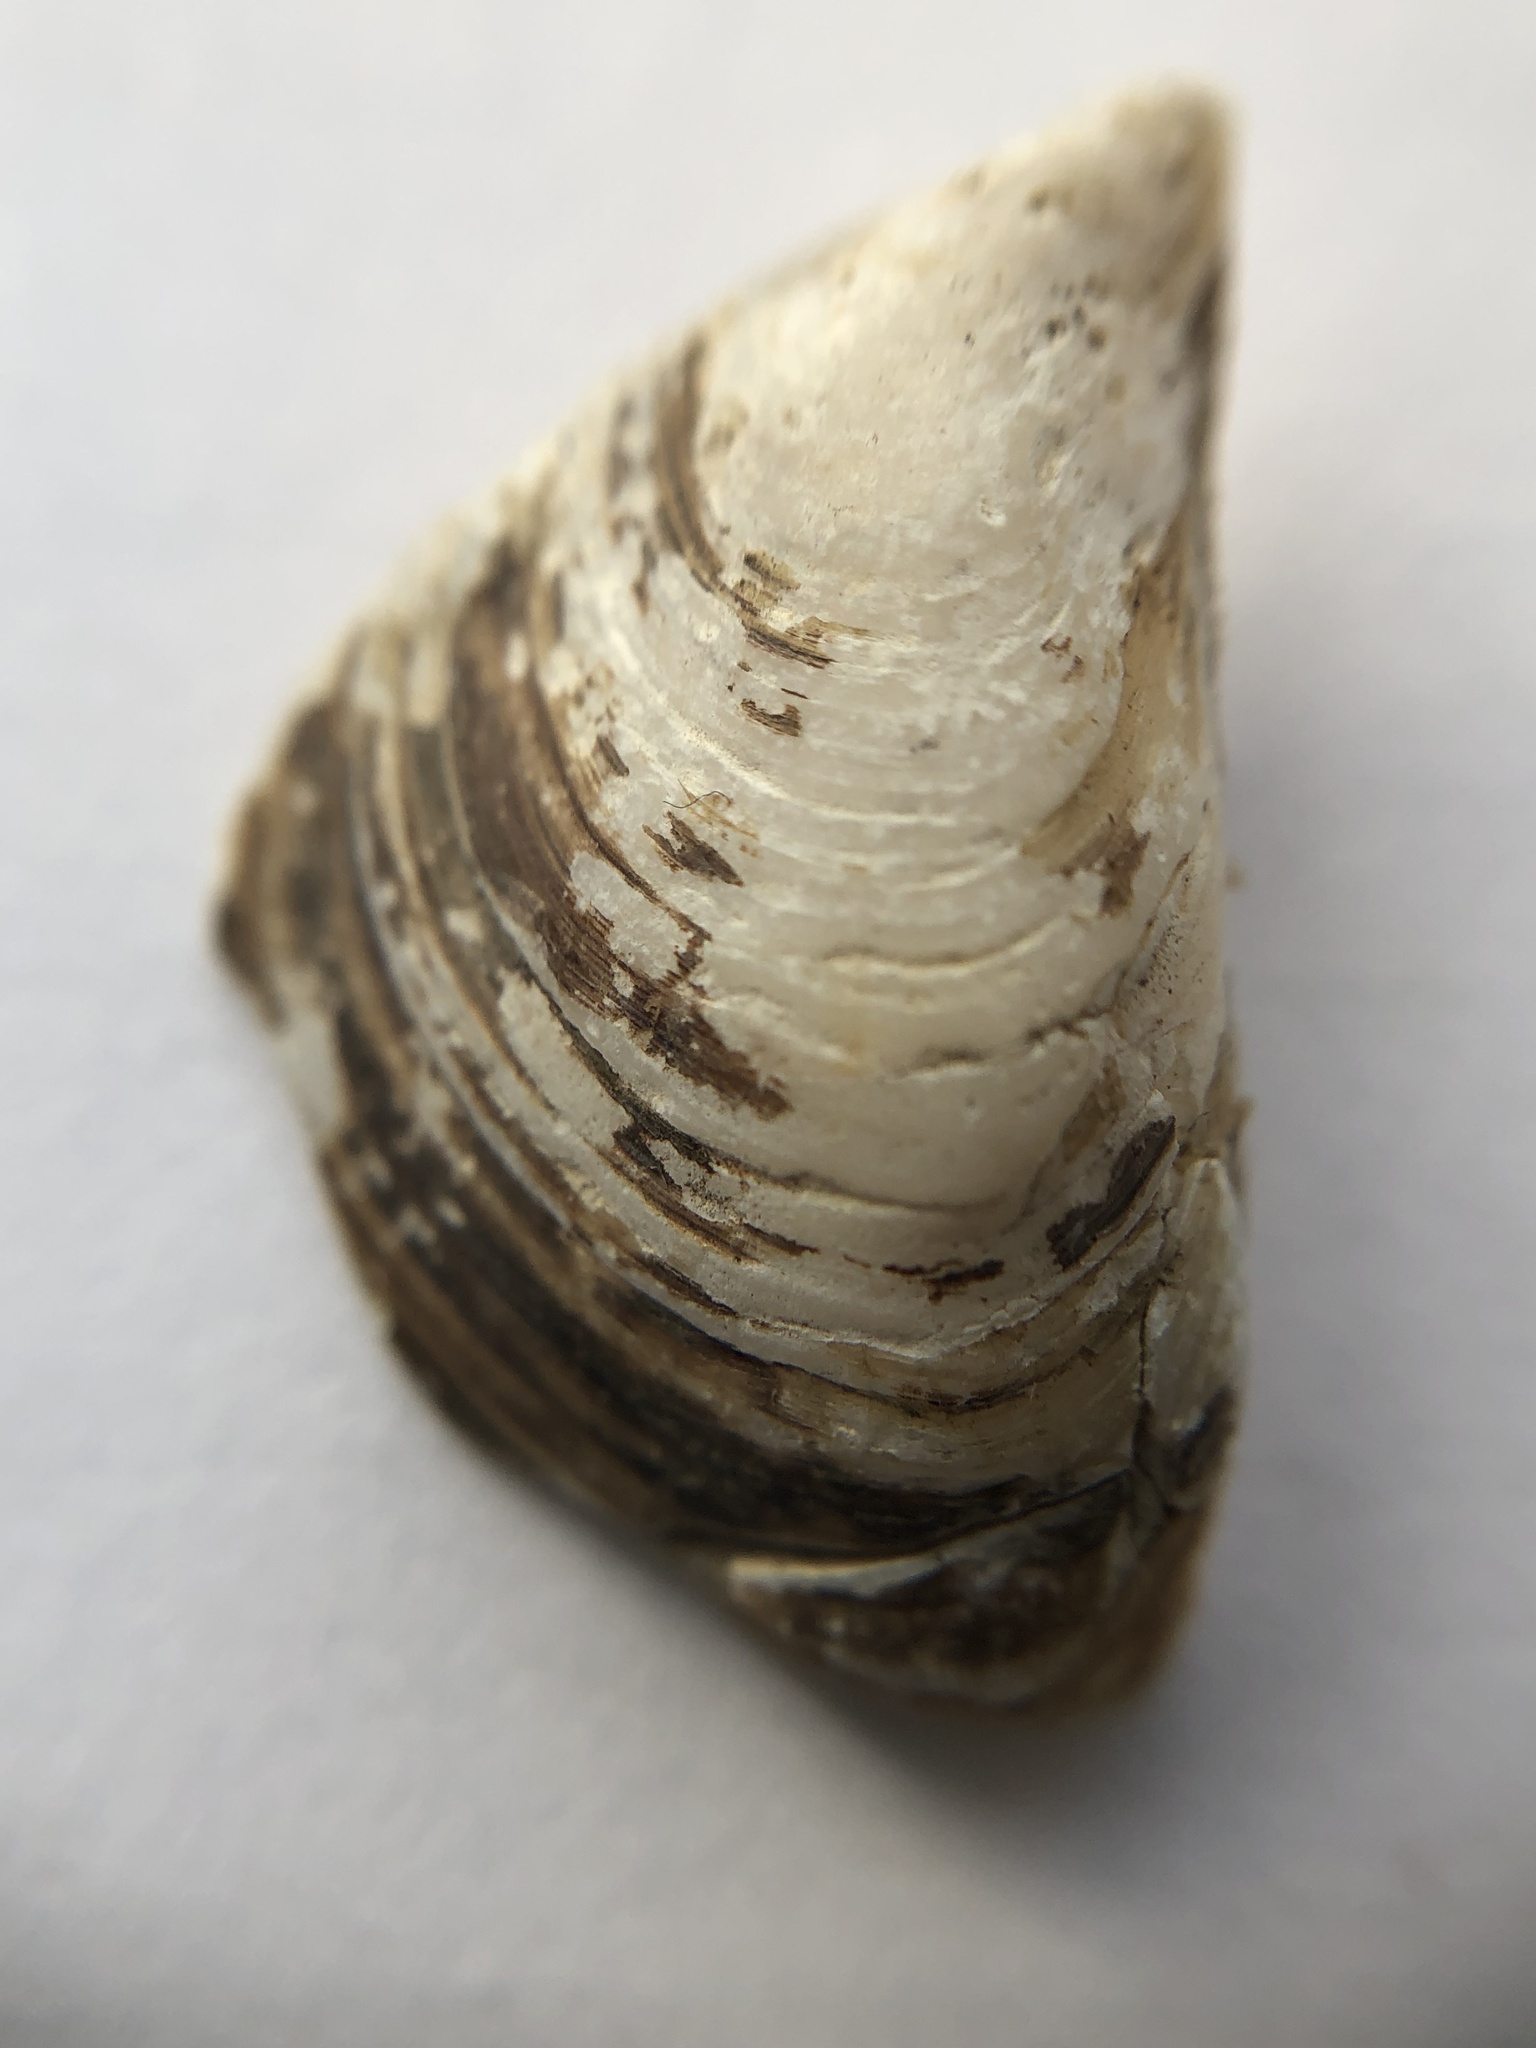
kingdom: Animalia
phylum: Mollusca
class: Bivalvia
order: Myida
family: Dreissenidae
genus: Dreissena
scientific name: Dreissena bugensis
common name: Quagga mussel
